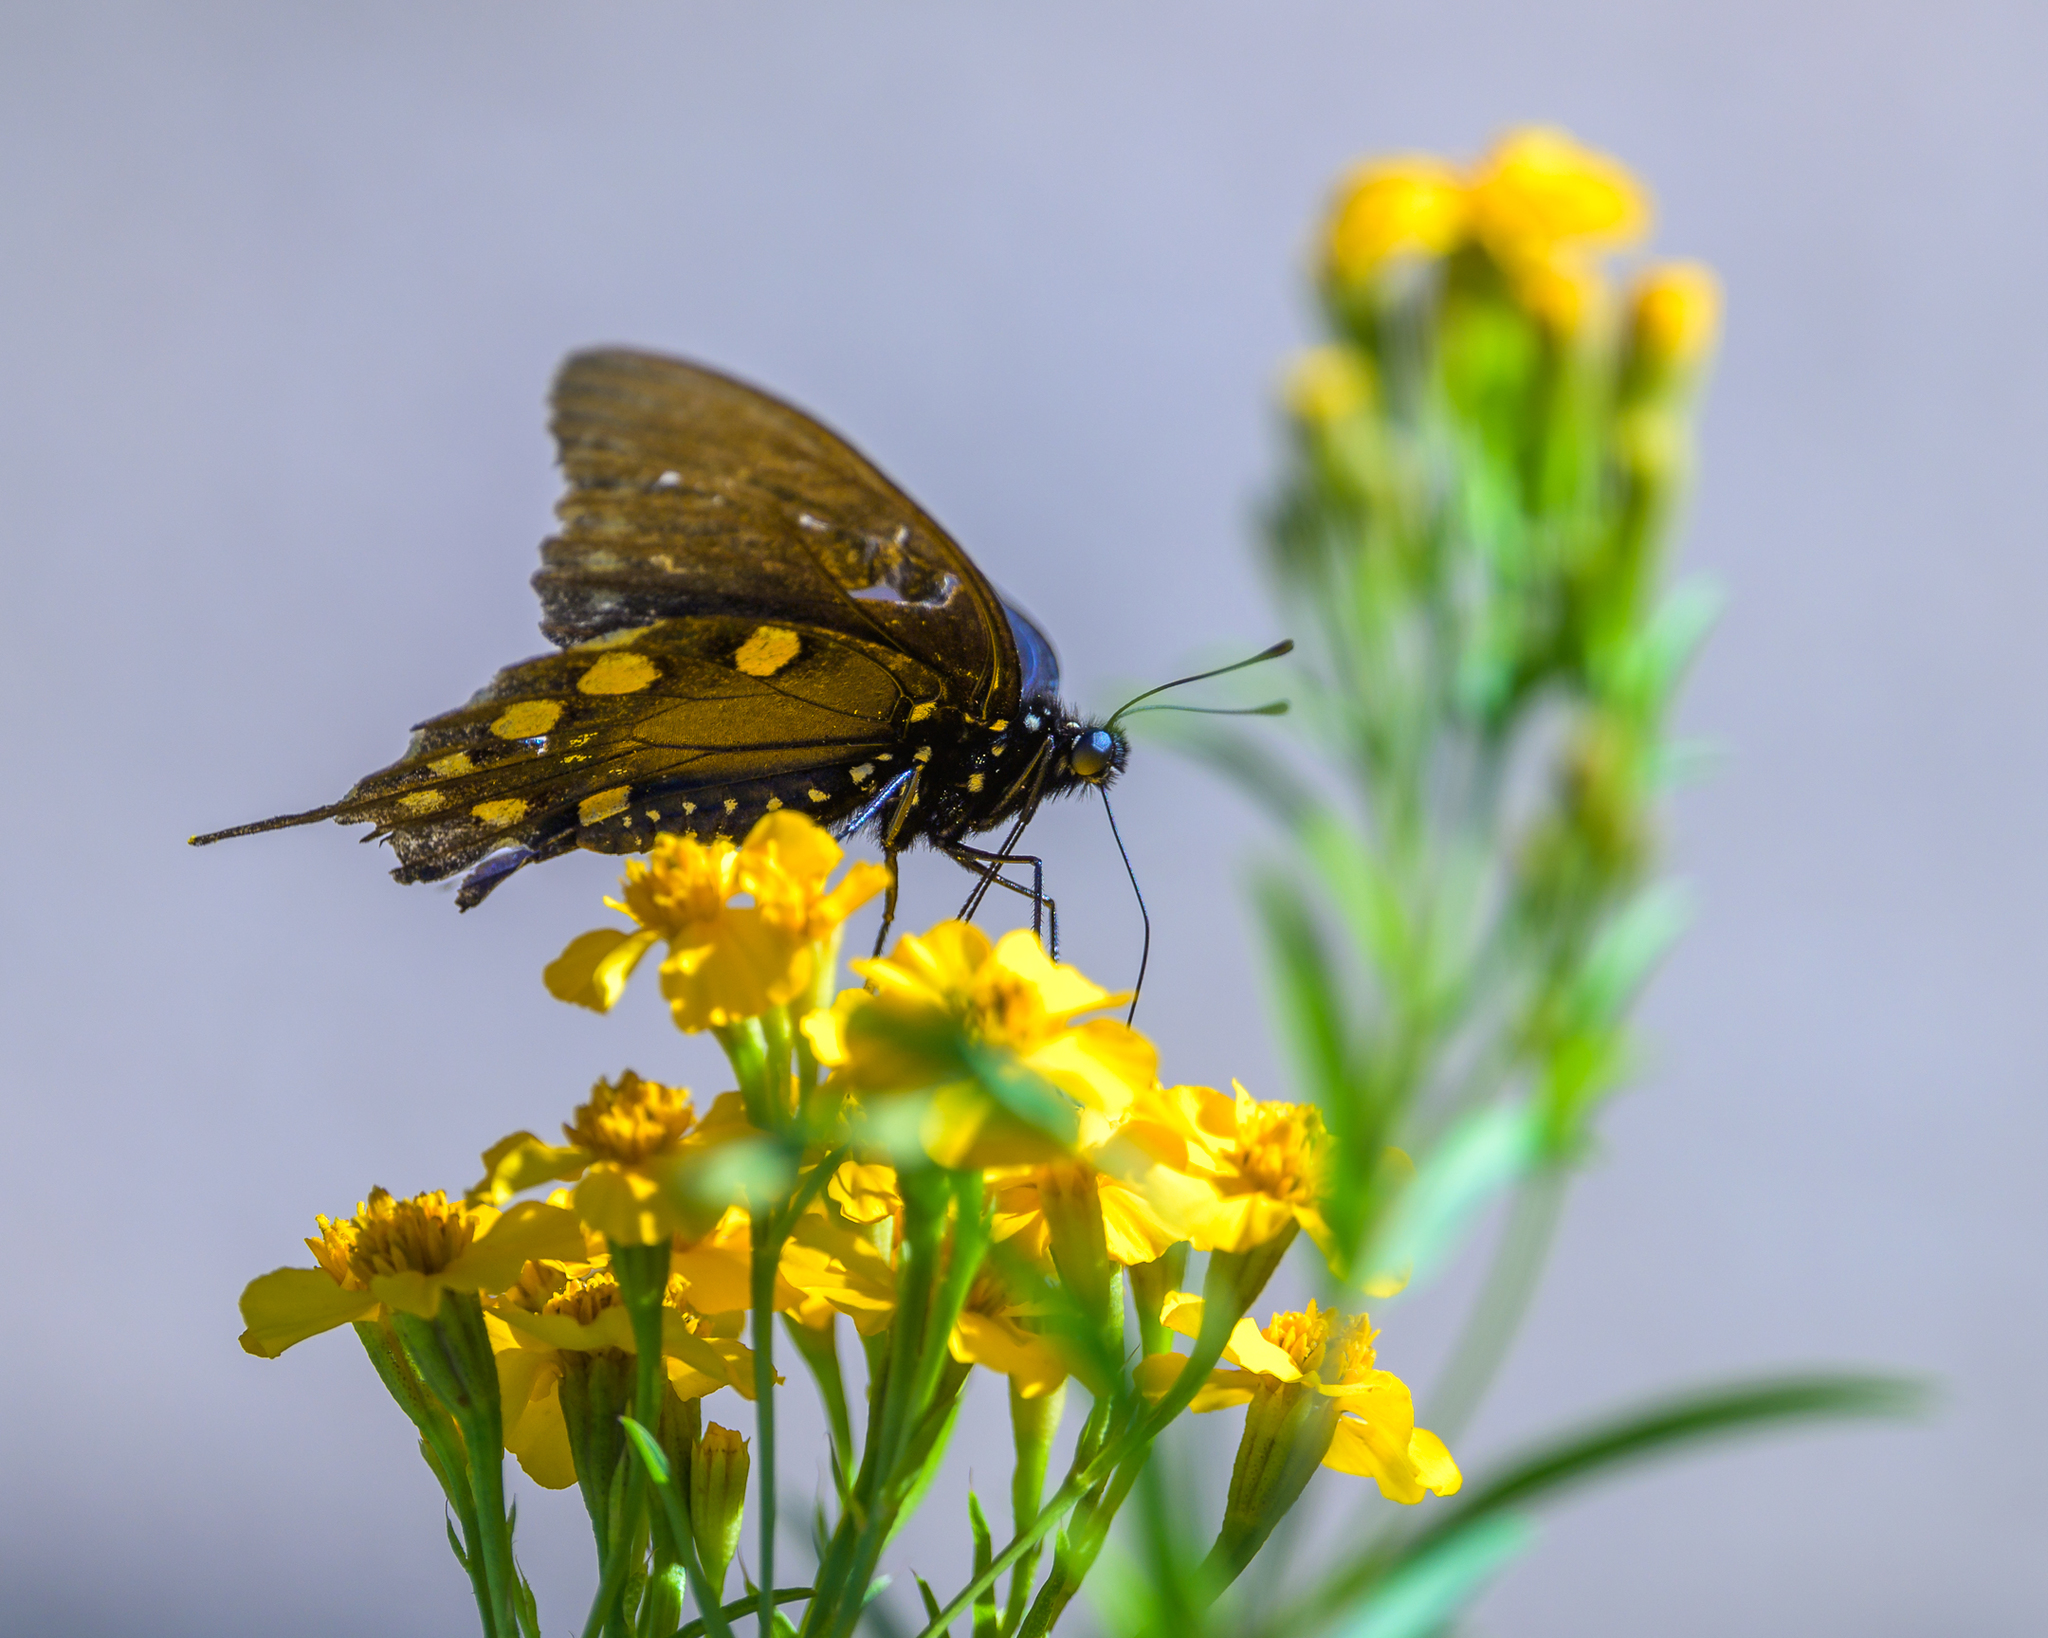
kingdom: Animalia
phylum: Arthropoda
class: Insecta
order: Lepidoptera
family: Papilionidae
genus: Battus
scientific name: Battus philenor
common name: Pipevine swallowtail
